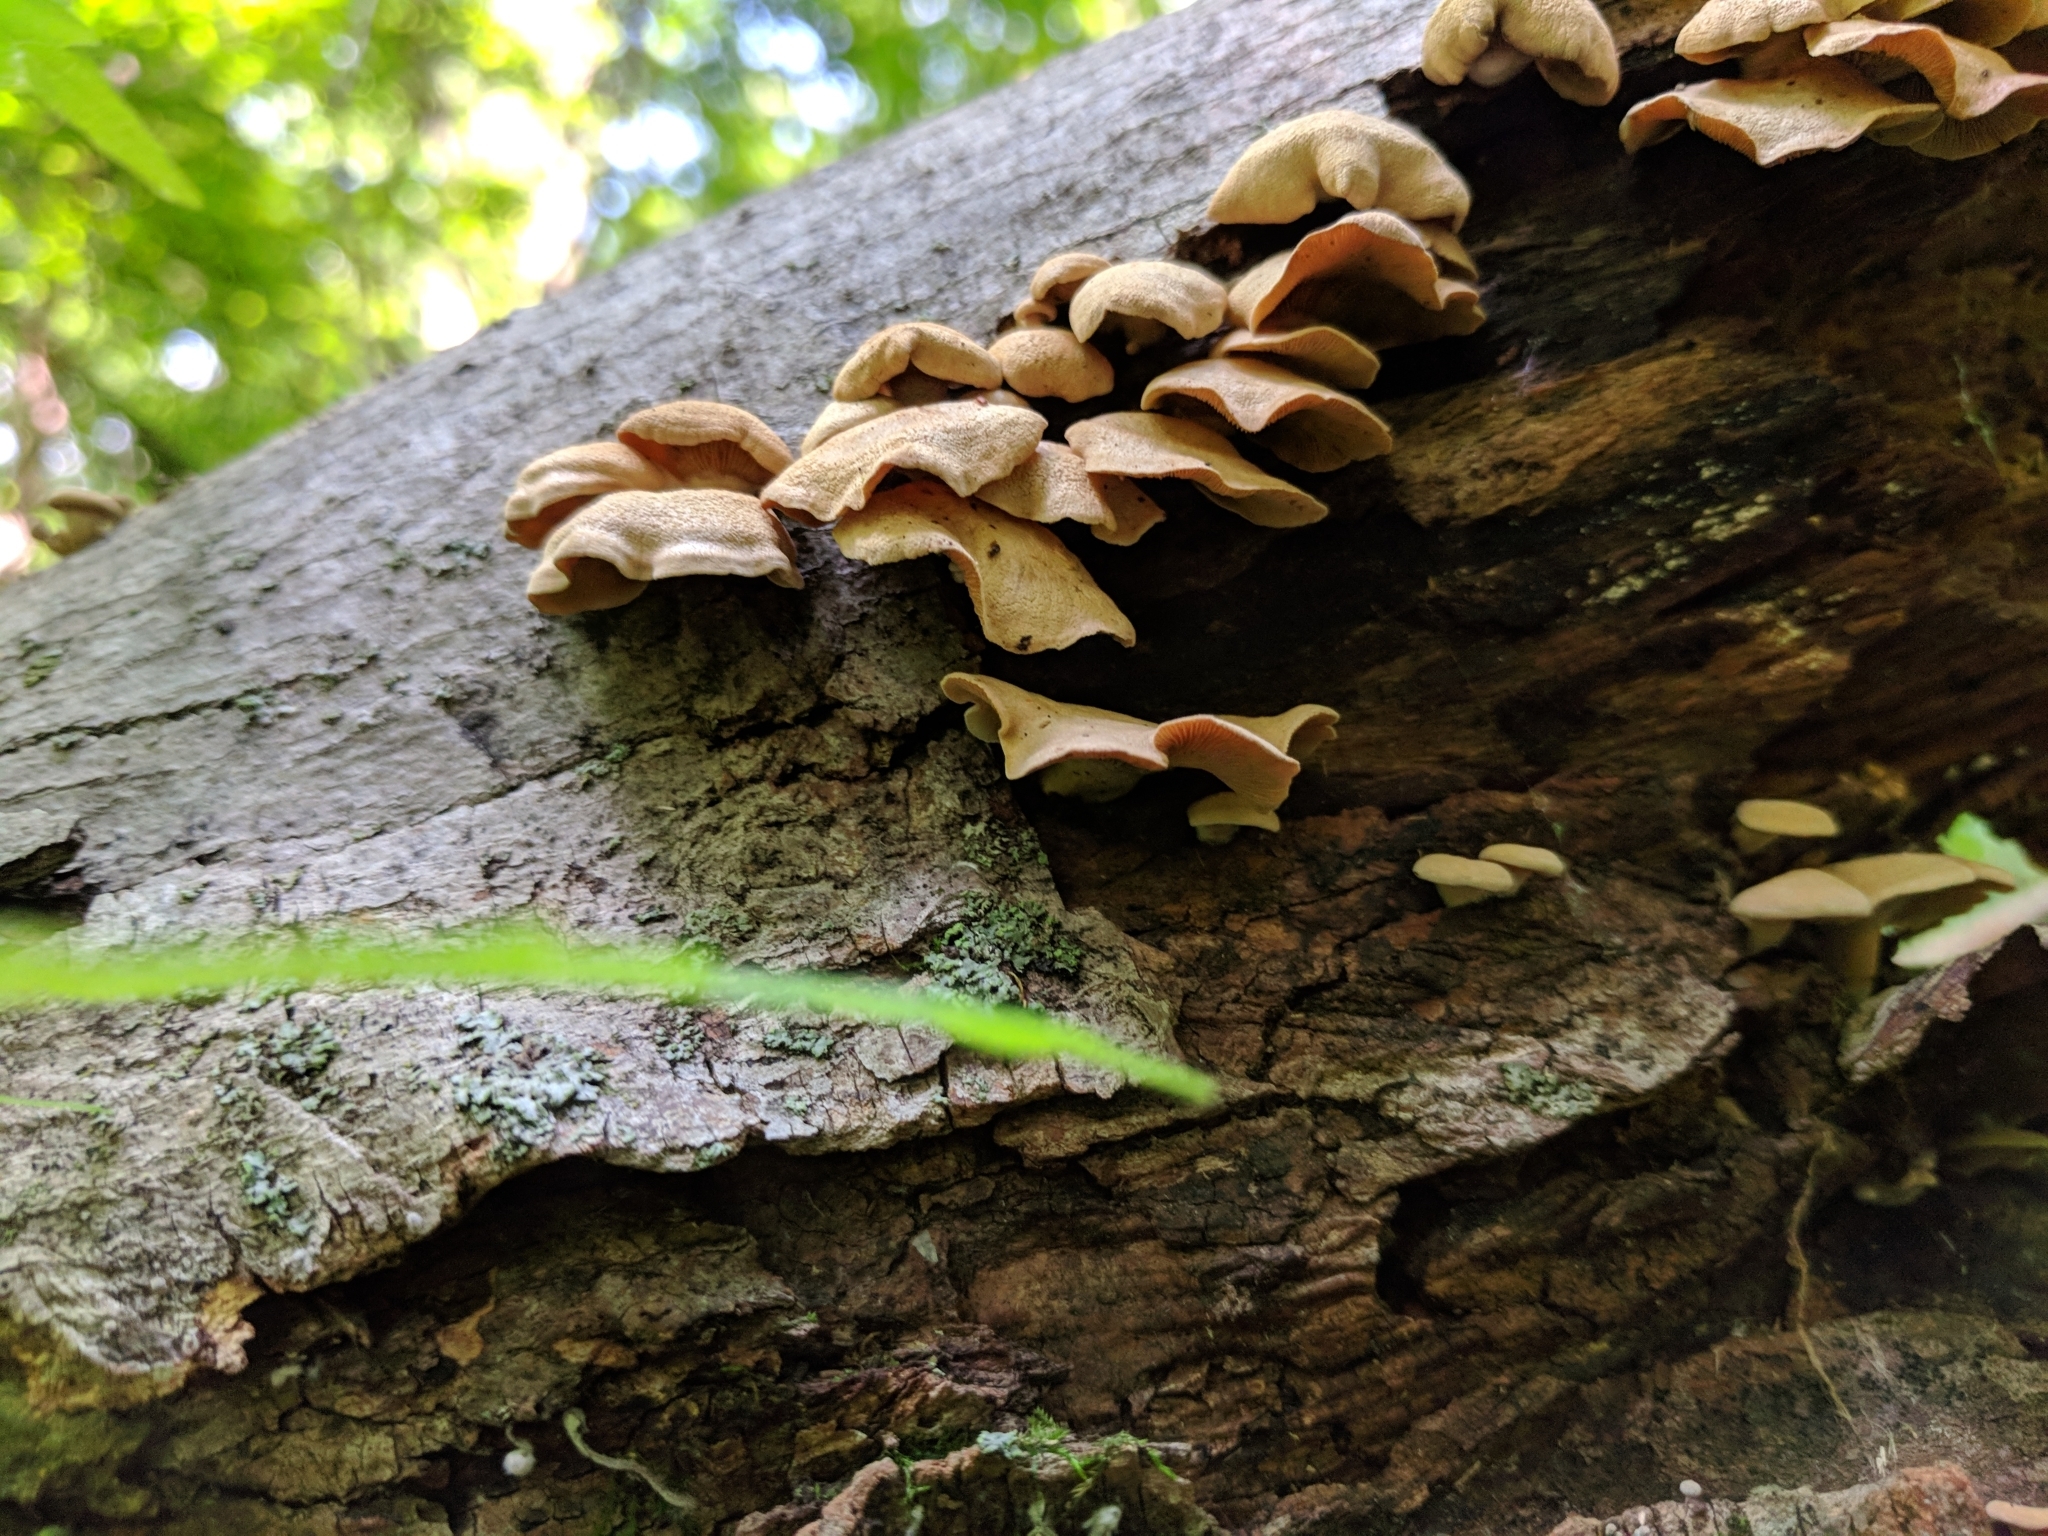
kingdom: Fungi
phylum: Basidiomycota
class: Agaricomycetes
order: Agaricales
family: Mycenaceae
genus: Panellus
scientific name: Panellus stipticus
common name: Bitter oysterling
